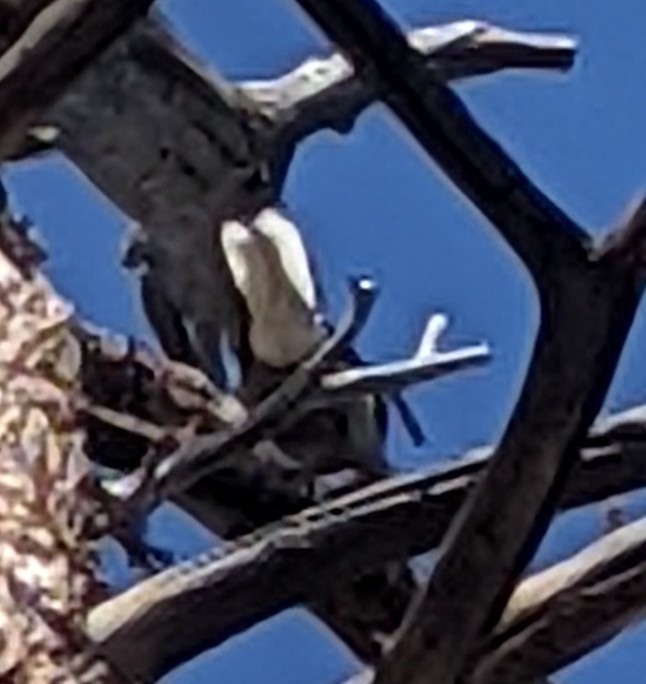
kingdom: Animalia
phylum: Chordata
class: Aves
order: Passeriformes
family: Corvidae
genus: Nucifraga
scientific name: Nucifraga columbiana
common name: Clark's nutcracker
